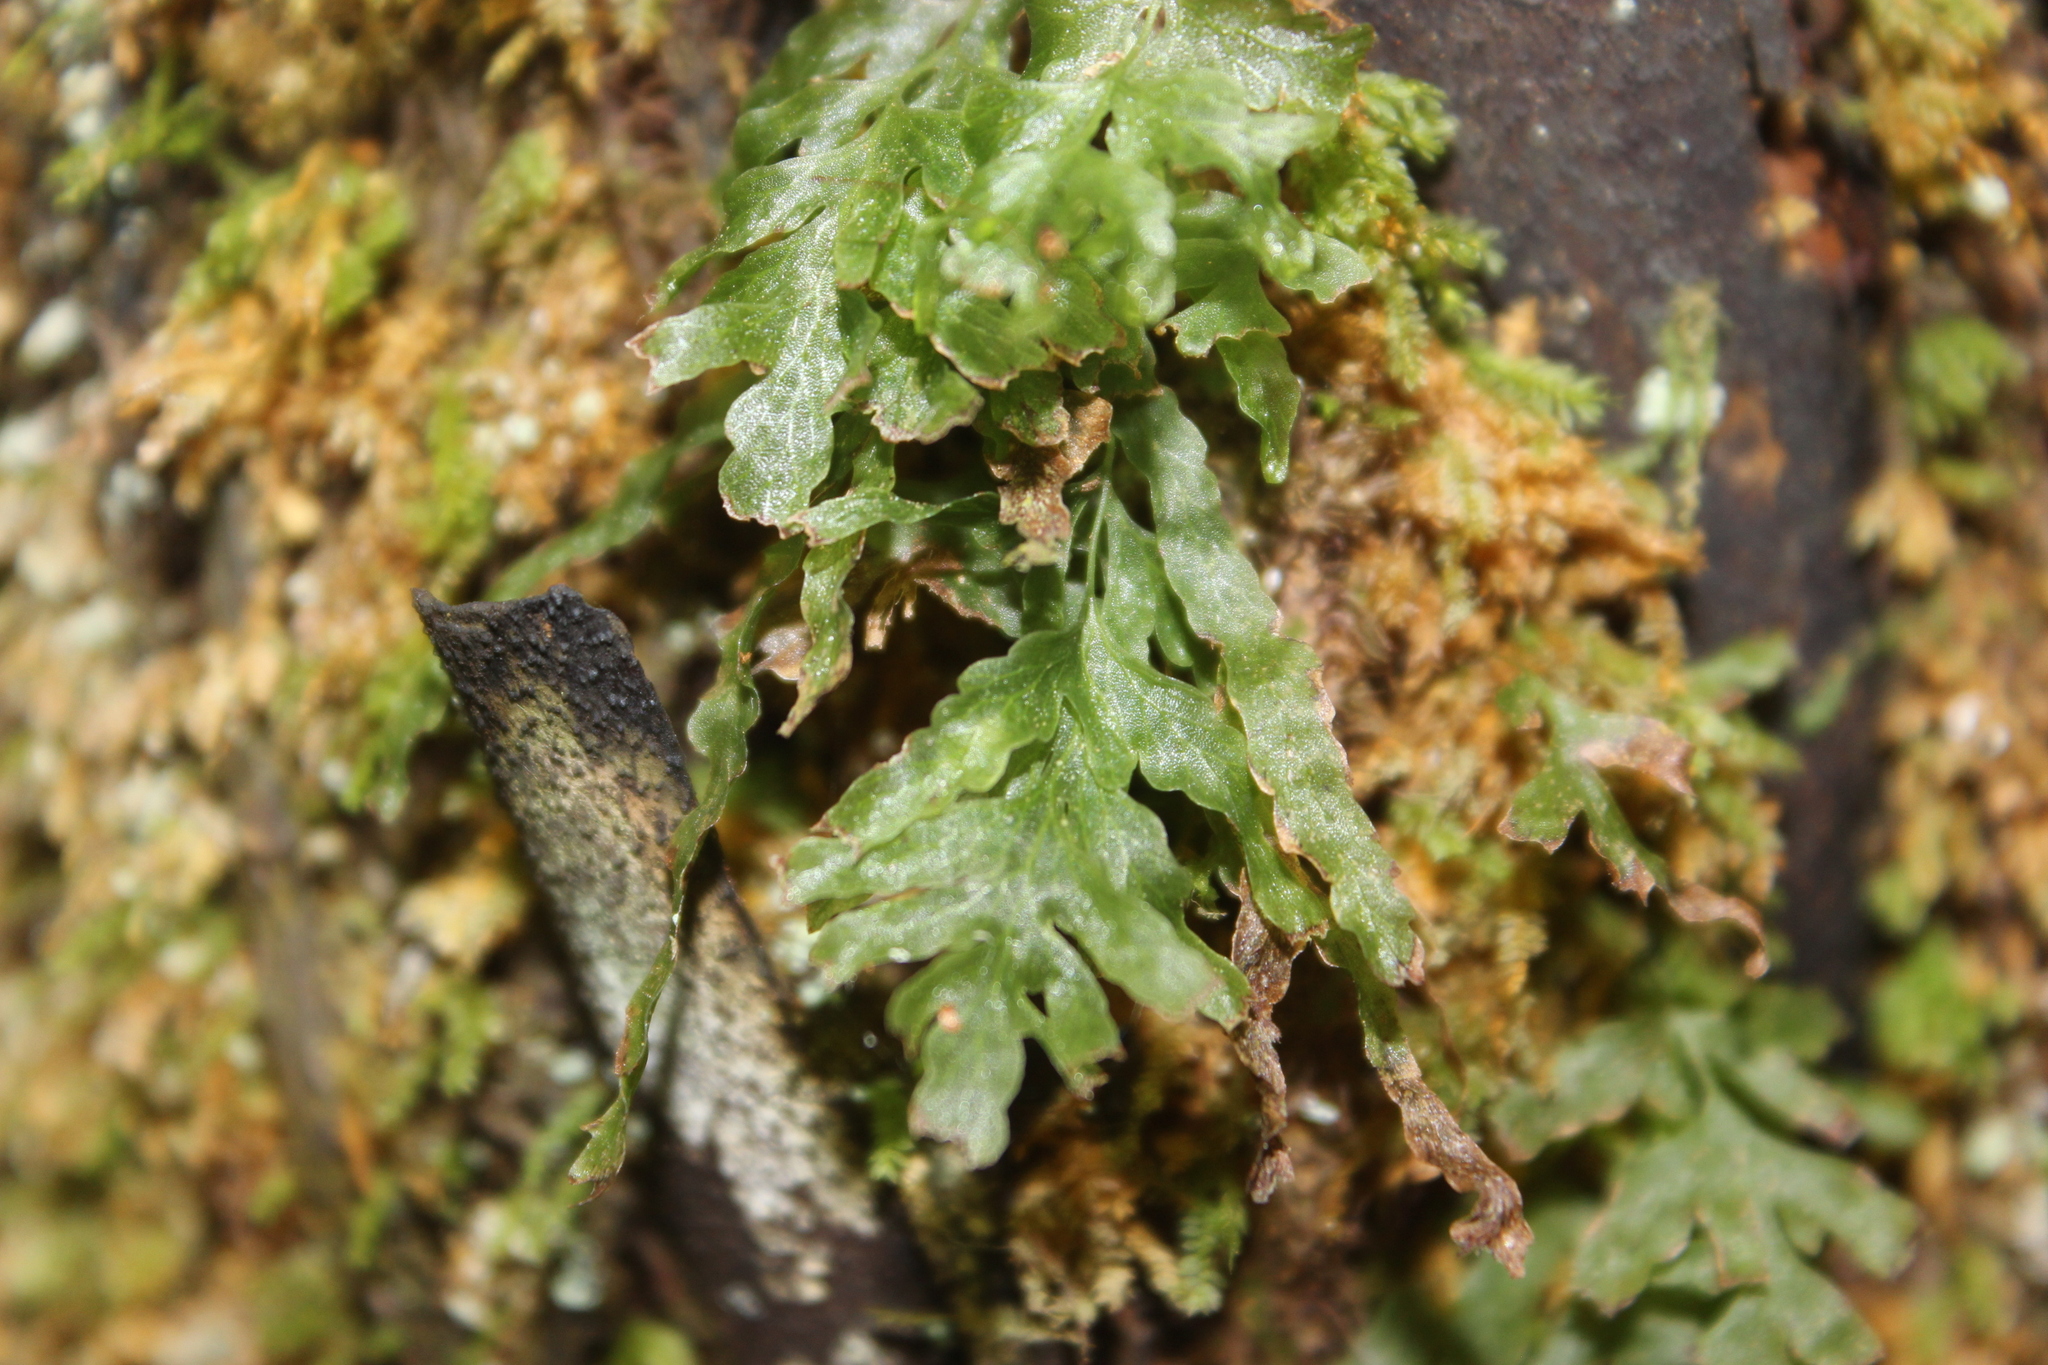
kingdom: Plantae
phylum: Tracheophyta
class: Polypodiopsida
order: Hymenophyllales
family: Hymenophyllaceae
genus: Polyphlebium
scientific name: Polyphlebium venosum
